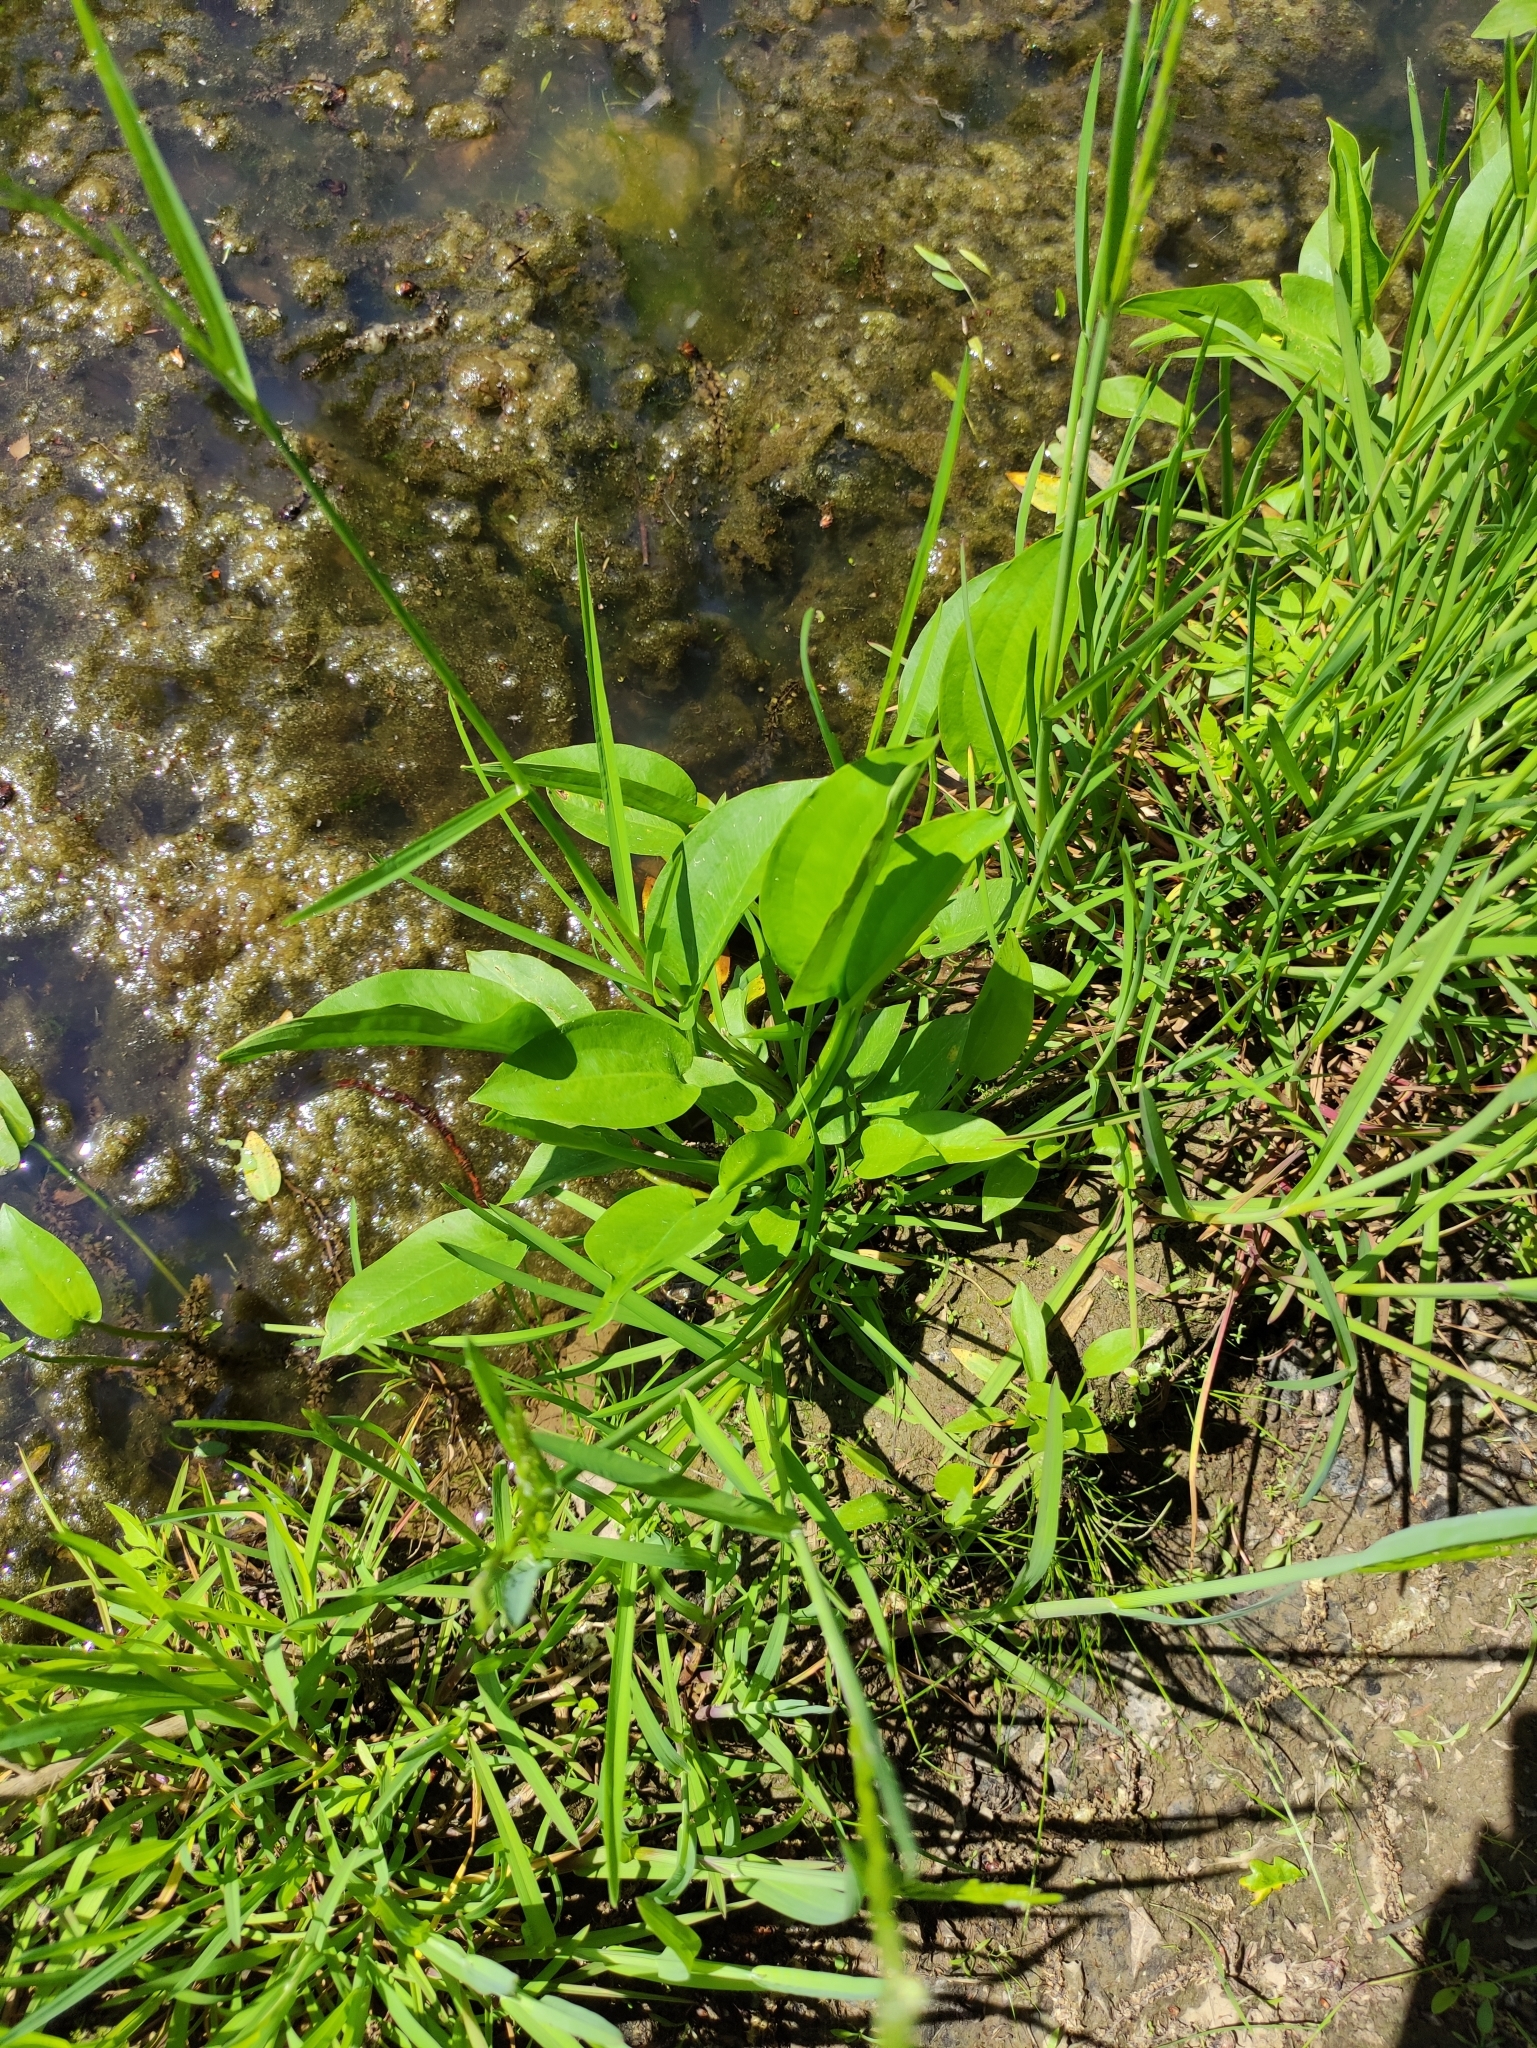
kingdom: Plantae
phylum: Tracheophyta
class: Liliopsida
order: Alismatales
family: Alismataceae
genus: Alisma
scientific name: Alisma plantago-aquatica
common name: Water-plantain
